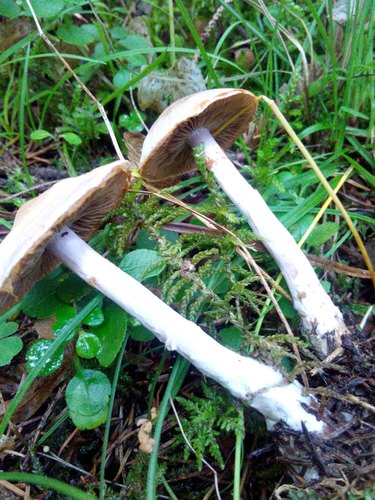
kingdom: Fungi
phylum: Basidiomycota
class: Agaricomycetes
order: Agaricales
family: Cortinariaceae
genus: Cortinarius
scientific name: Cortinarius
